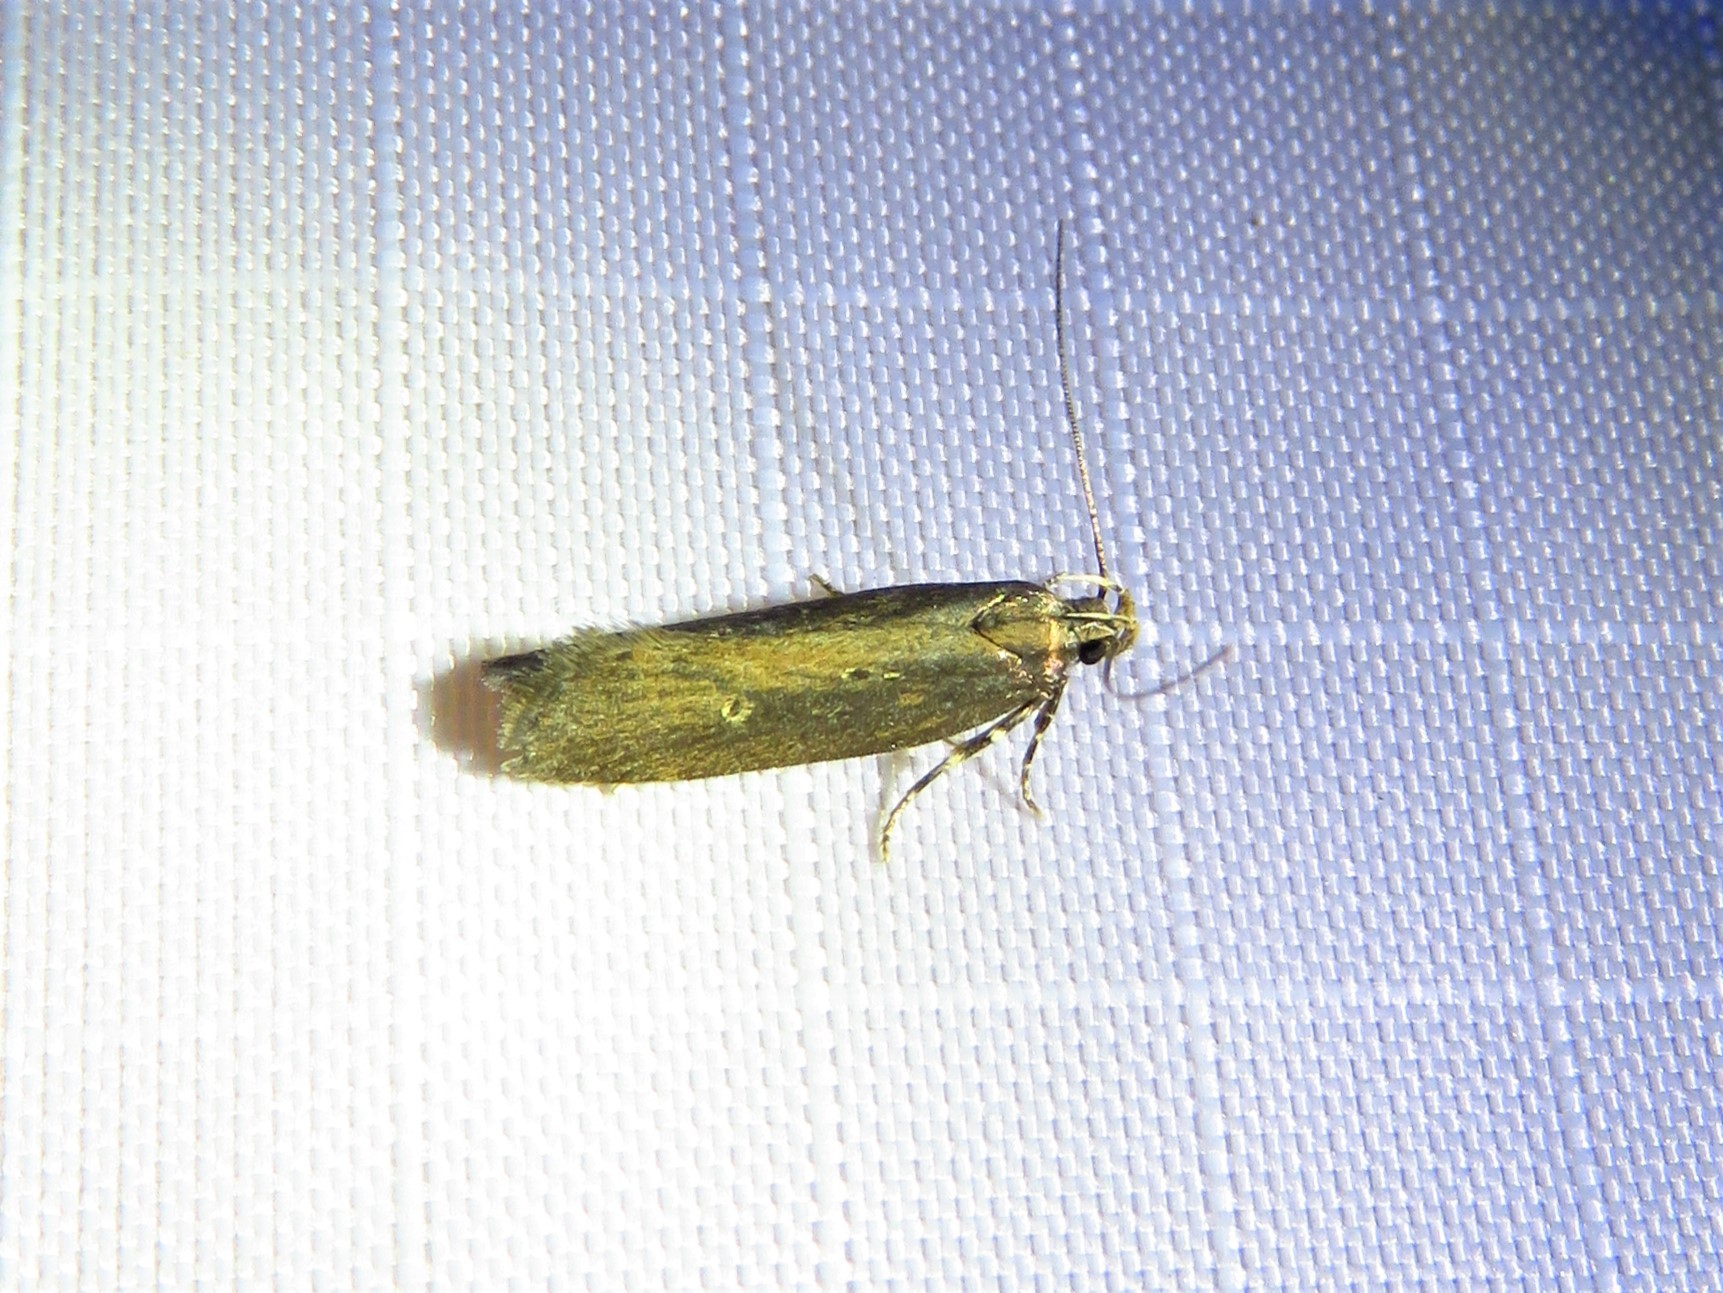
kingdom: Animalia
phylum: Arthropoda
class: Insecta
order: Lepidoptera
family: Gelechiidae
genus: Chionodes
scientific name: Chionodes discoocellella
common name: Eye-ringed chionodes moth
